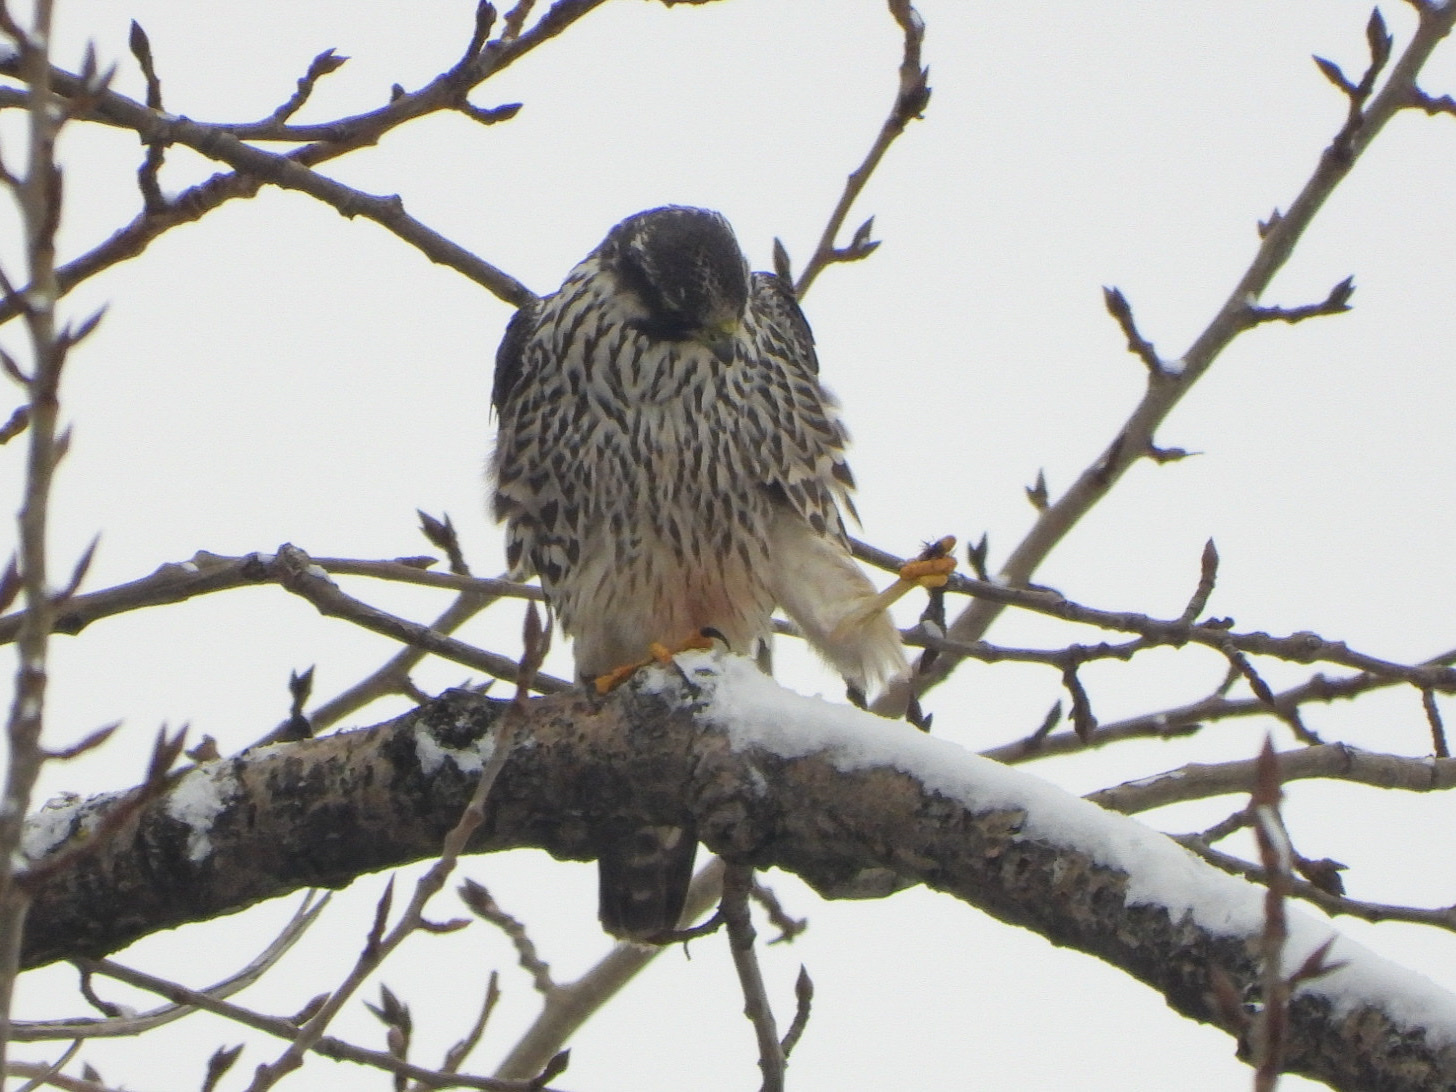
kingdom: Animalia
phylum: Chordata
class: Aves
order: Falconiformes
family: Falconidae
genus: Falco
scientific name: Falco peregrinus
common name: Peregrine falcon
